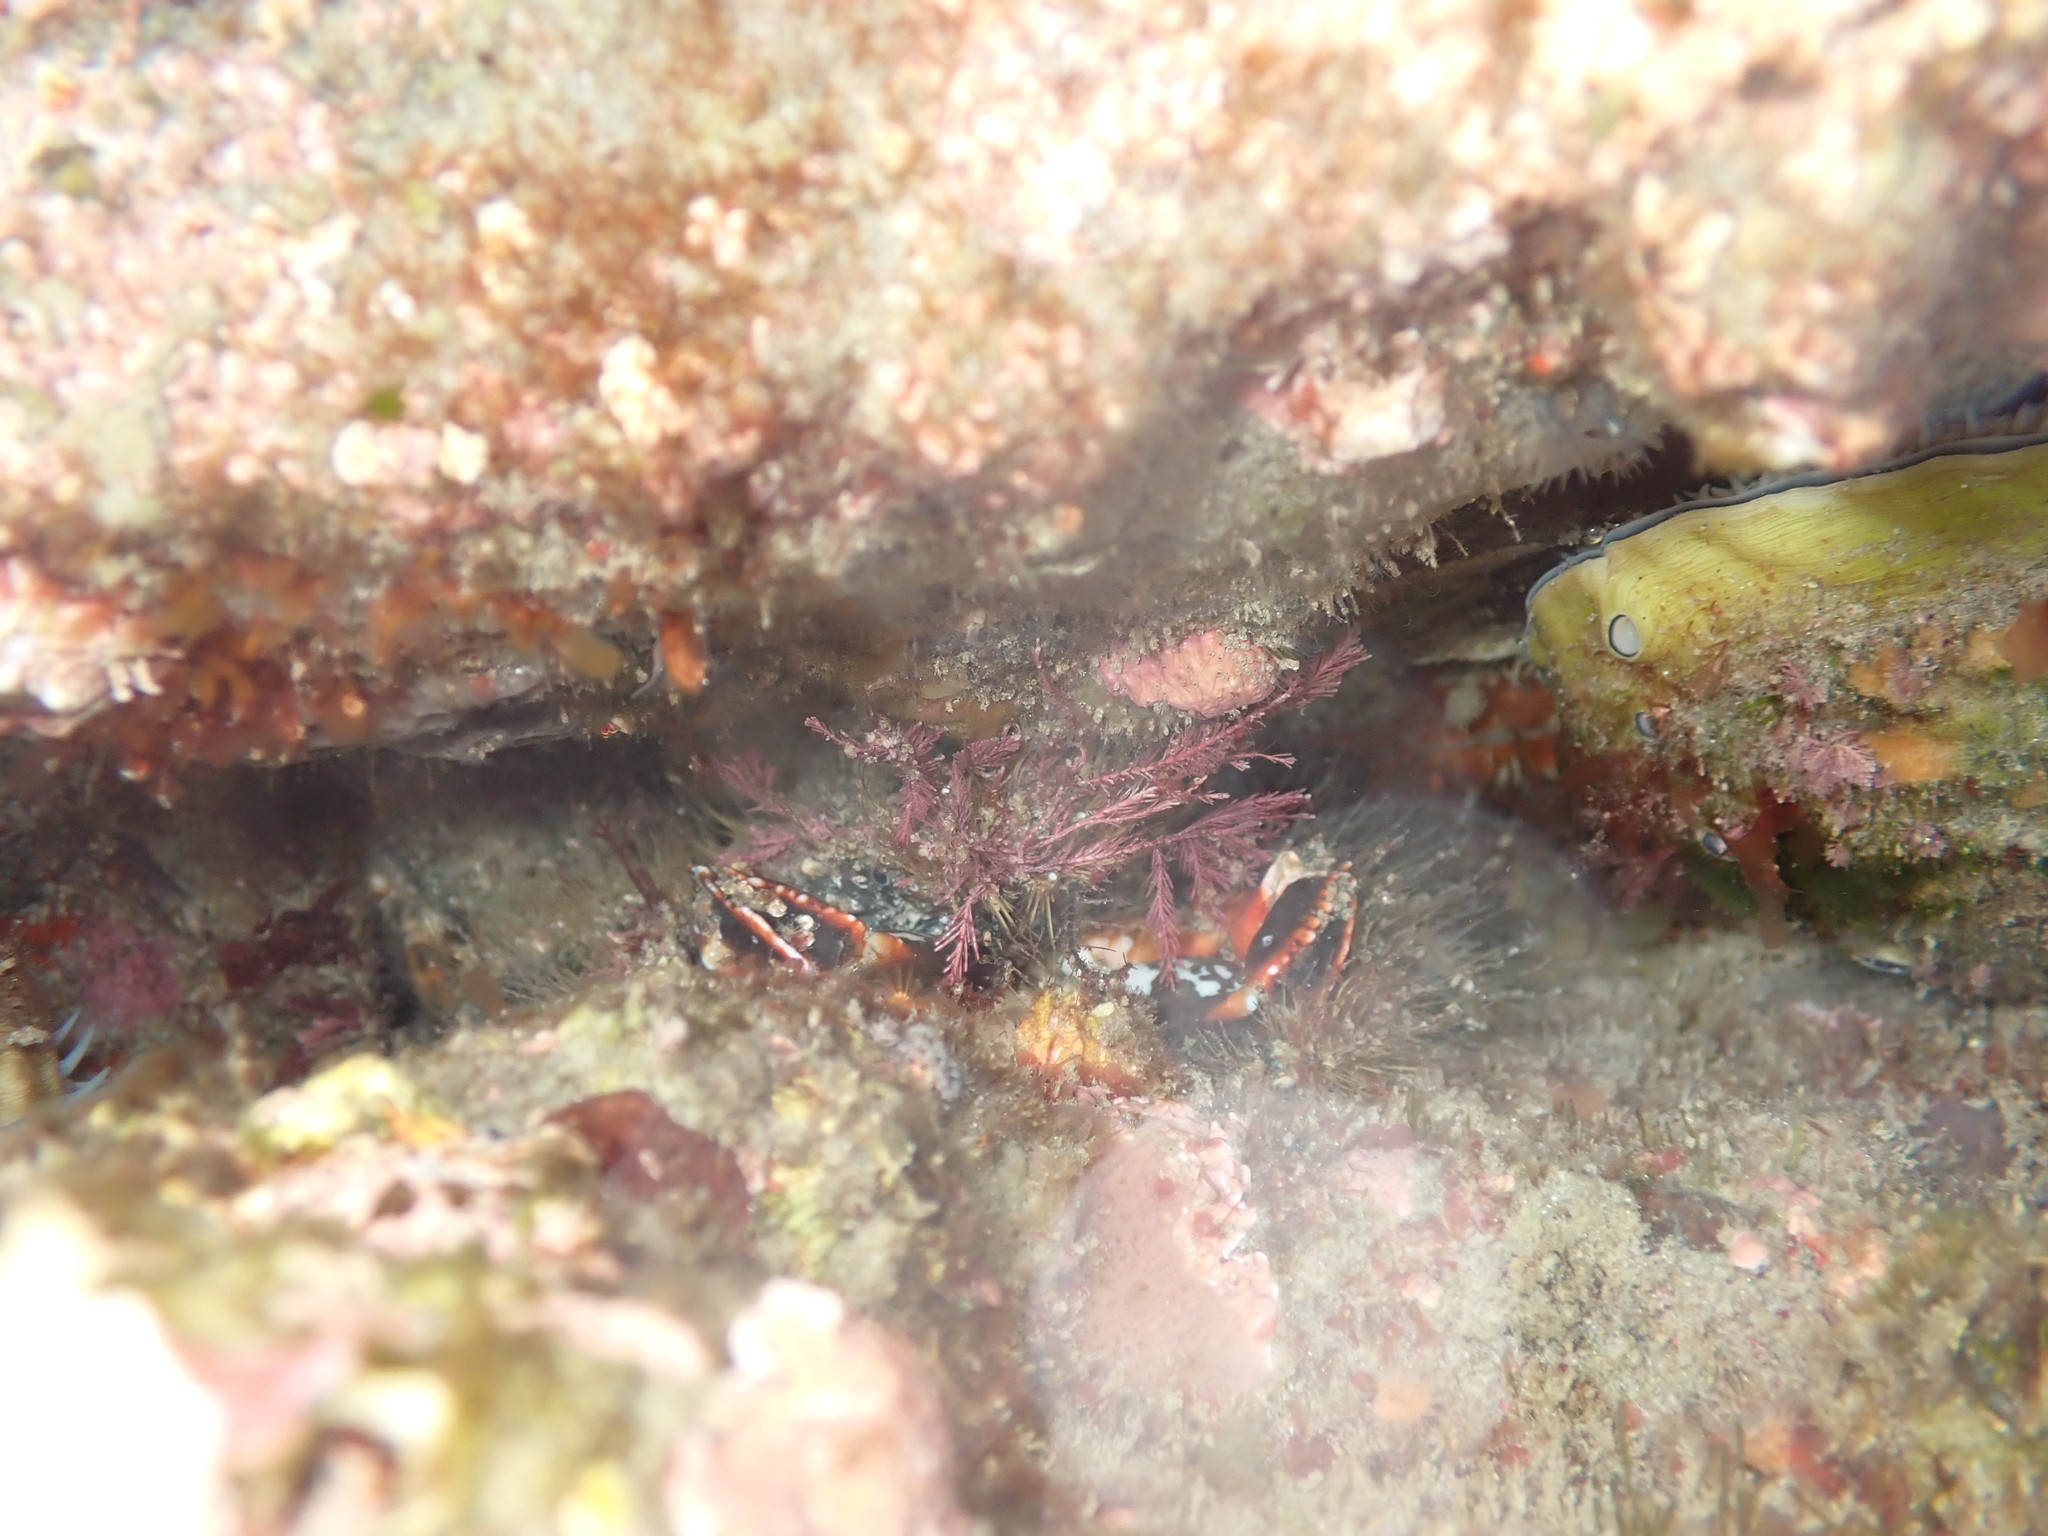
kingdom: Animalia
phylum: Arthropoda
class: Malacostraca
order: Decapoda
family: Majidae
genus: Notomithrax
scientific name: Notomithrax ursus
